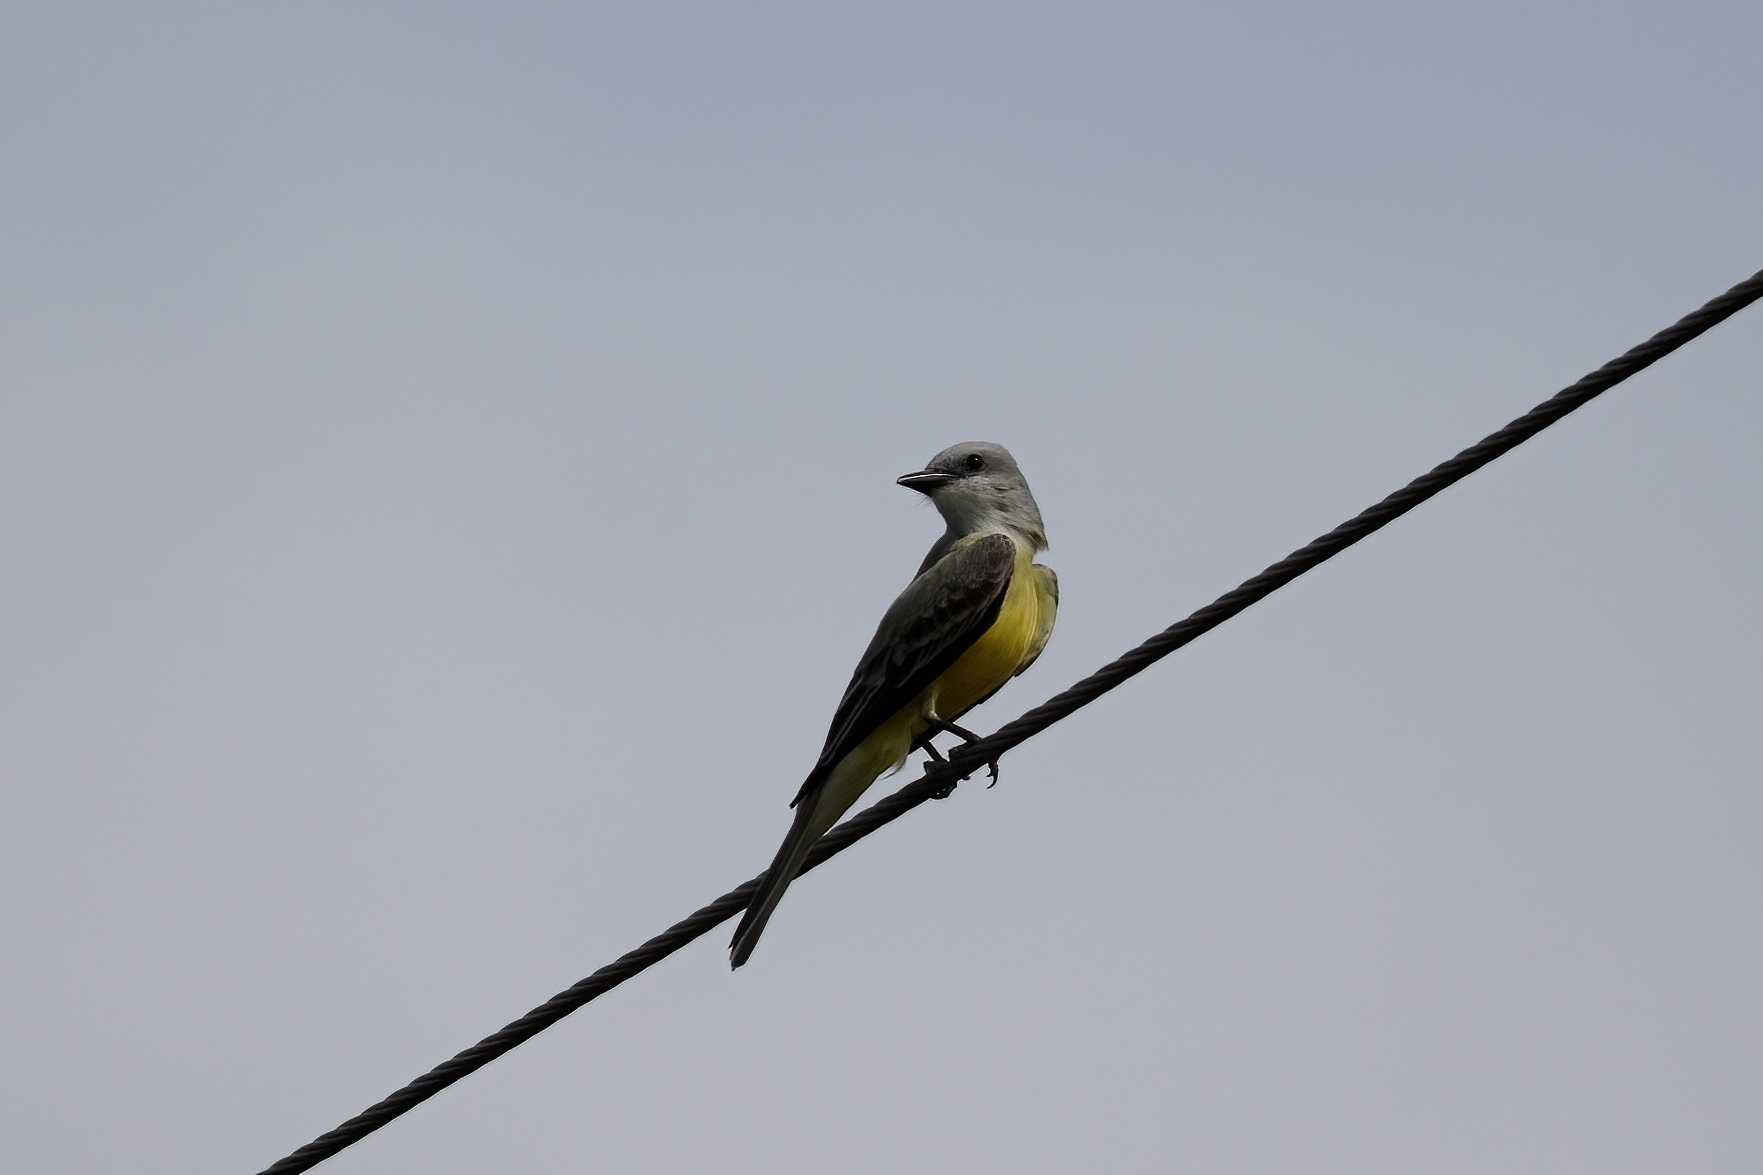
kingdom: Animalia
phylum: Chordata
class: Aves
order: Passeriformes
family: Tyrannidae
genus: Tyrannus
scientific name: Tyrannus couchii
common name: Couch's kingbird
